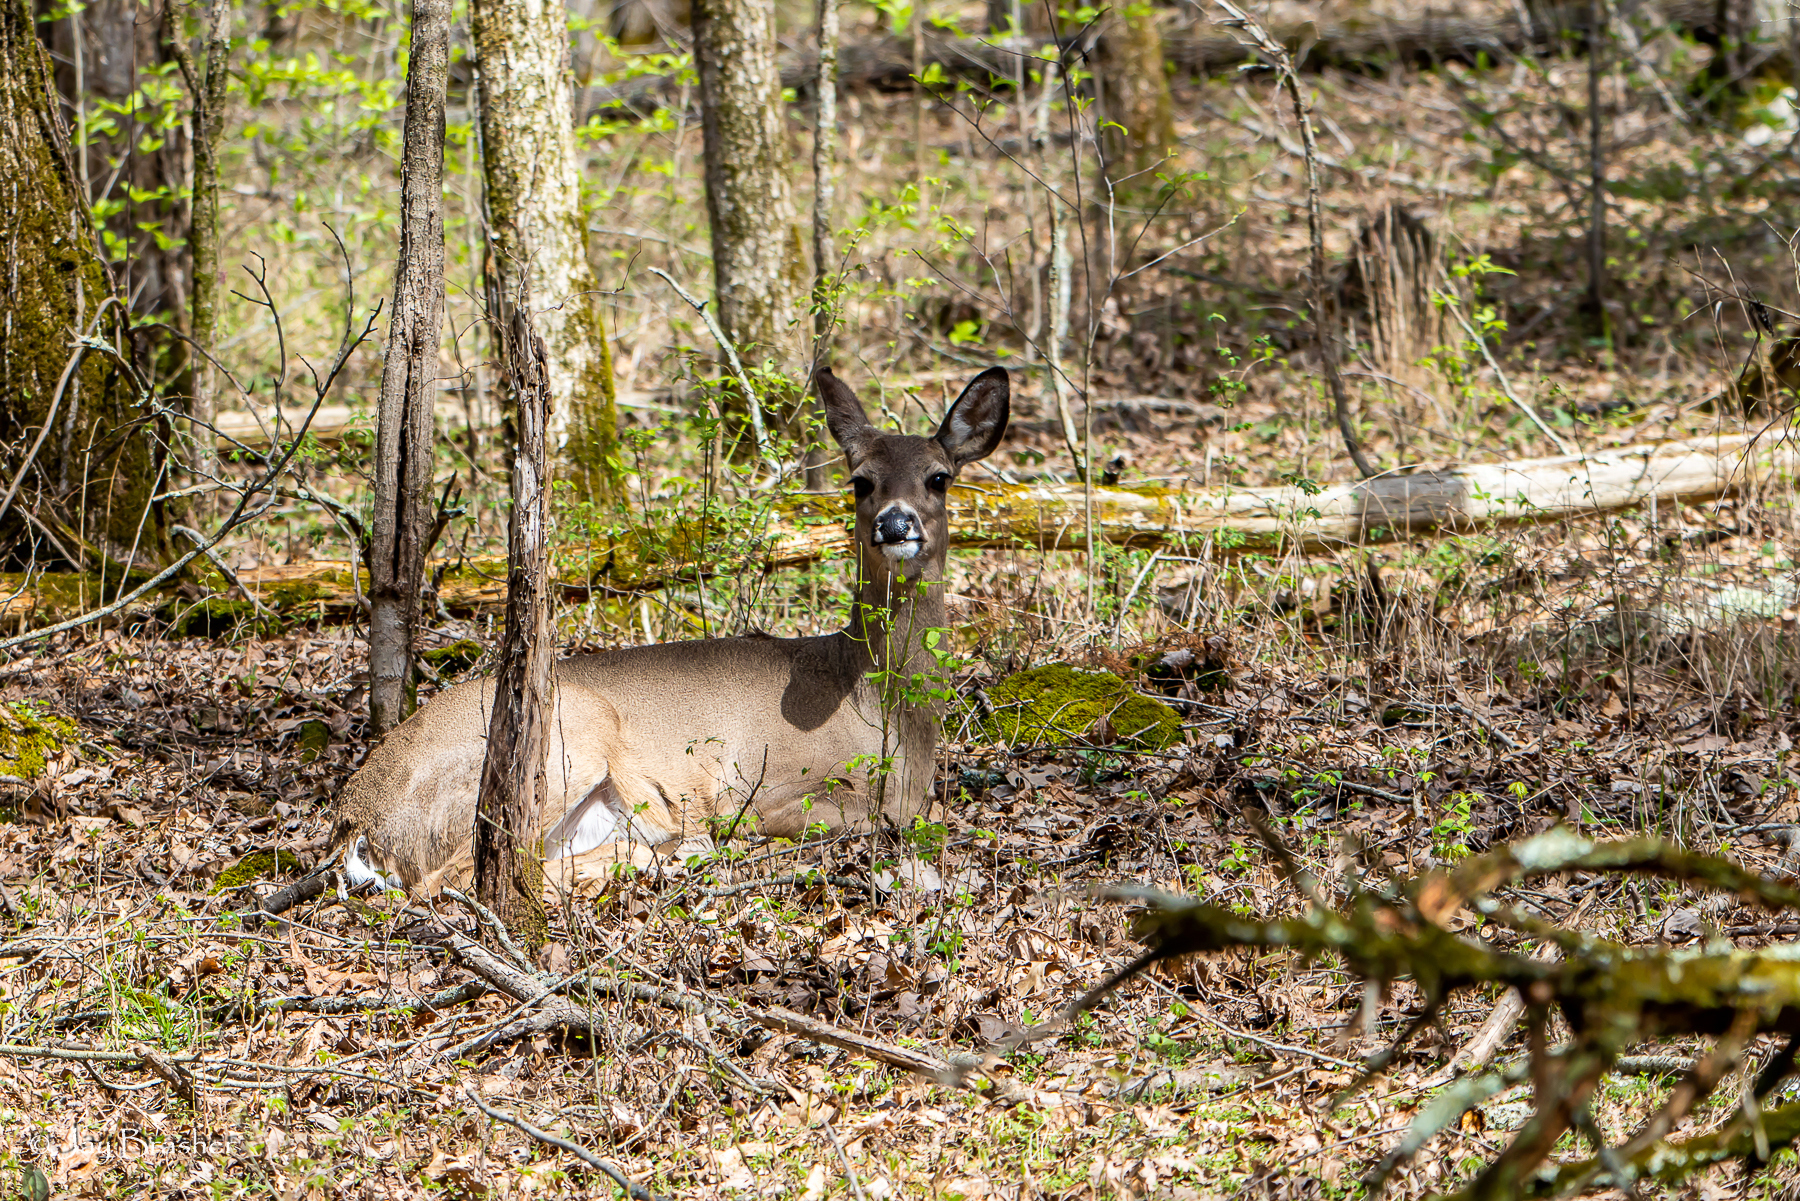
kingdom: Animalia
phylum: Chordata
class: Mammalia
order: Artiodactyla
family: Cervidae
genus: Odocoileus
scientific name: Odocoileus virginianus
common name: White-tailed deer
